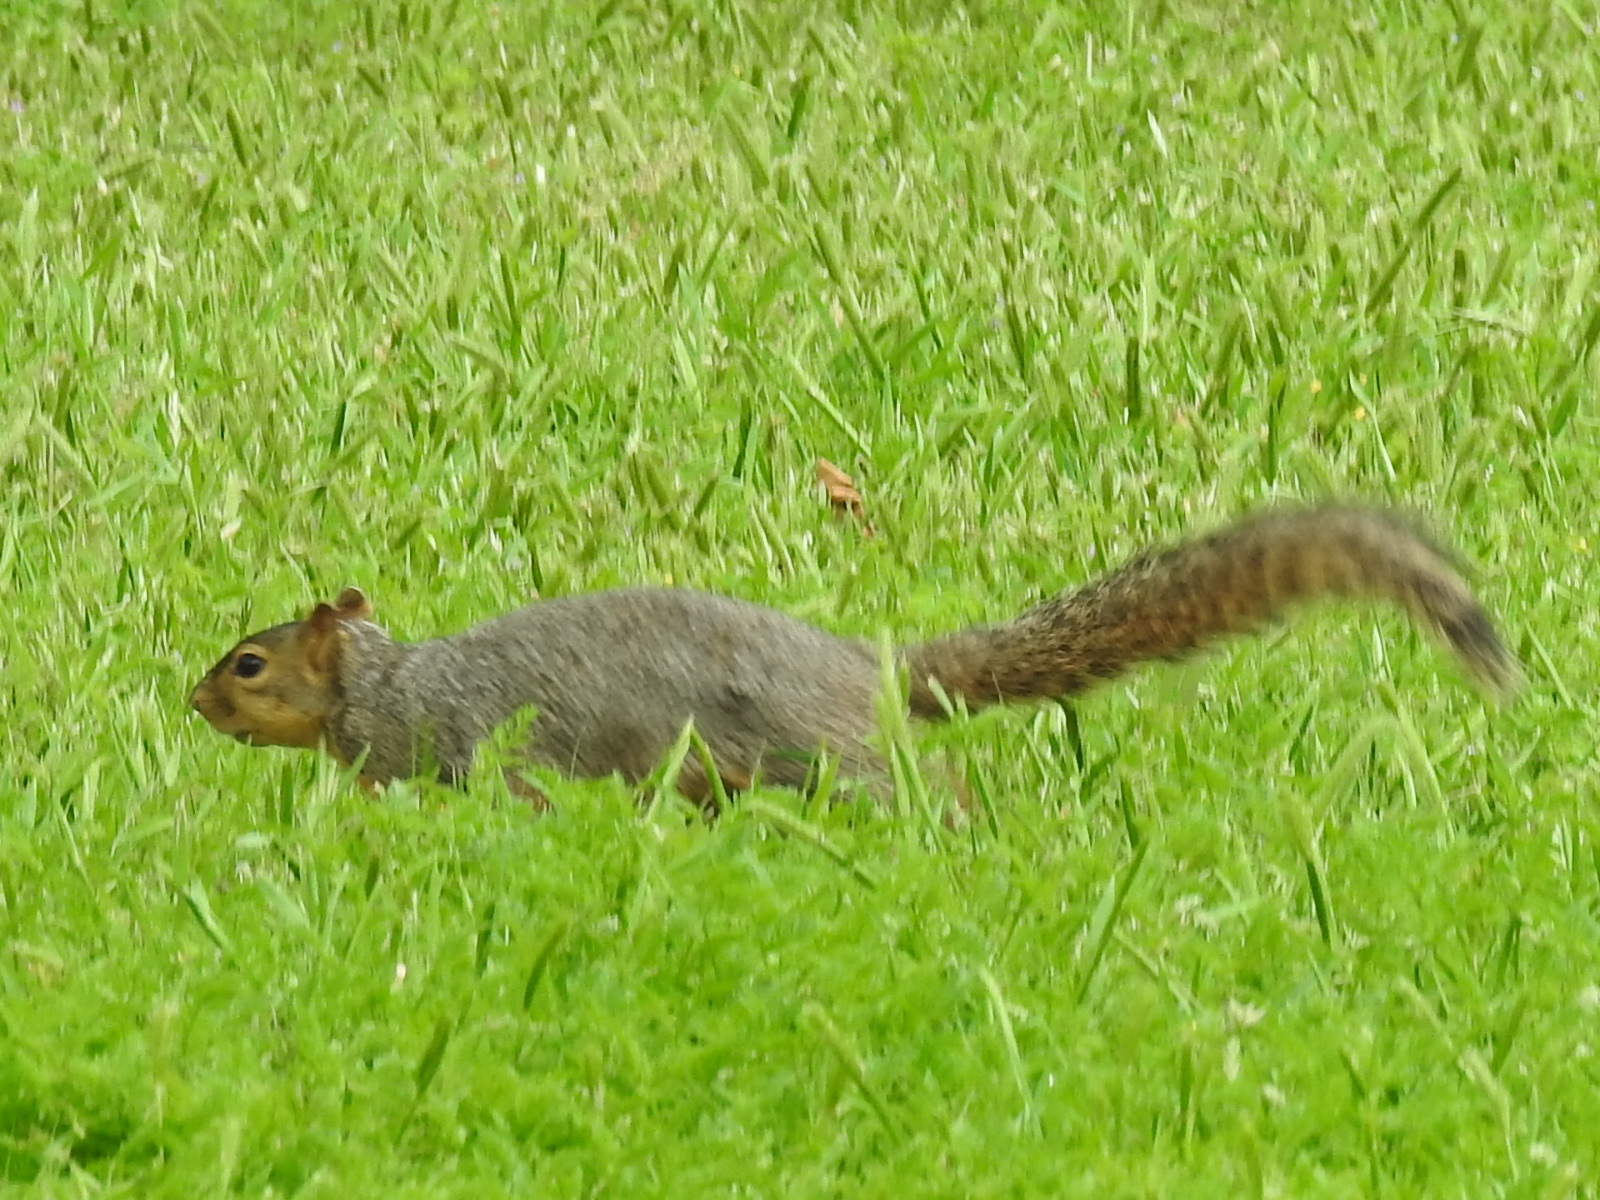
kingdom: Animalia
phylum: Chordata
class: Mammalia
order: Rodentia
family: Sciuridae
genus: Sciurus
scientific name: Sciurus niger
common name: Fox squirrel
